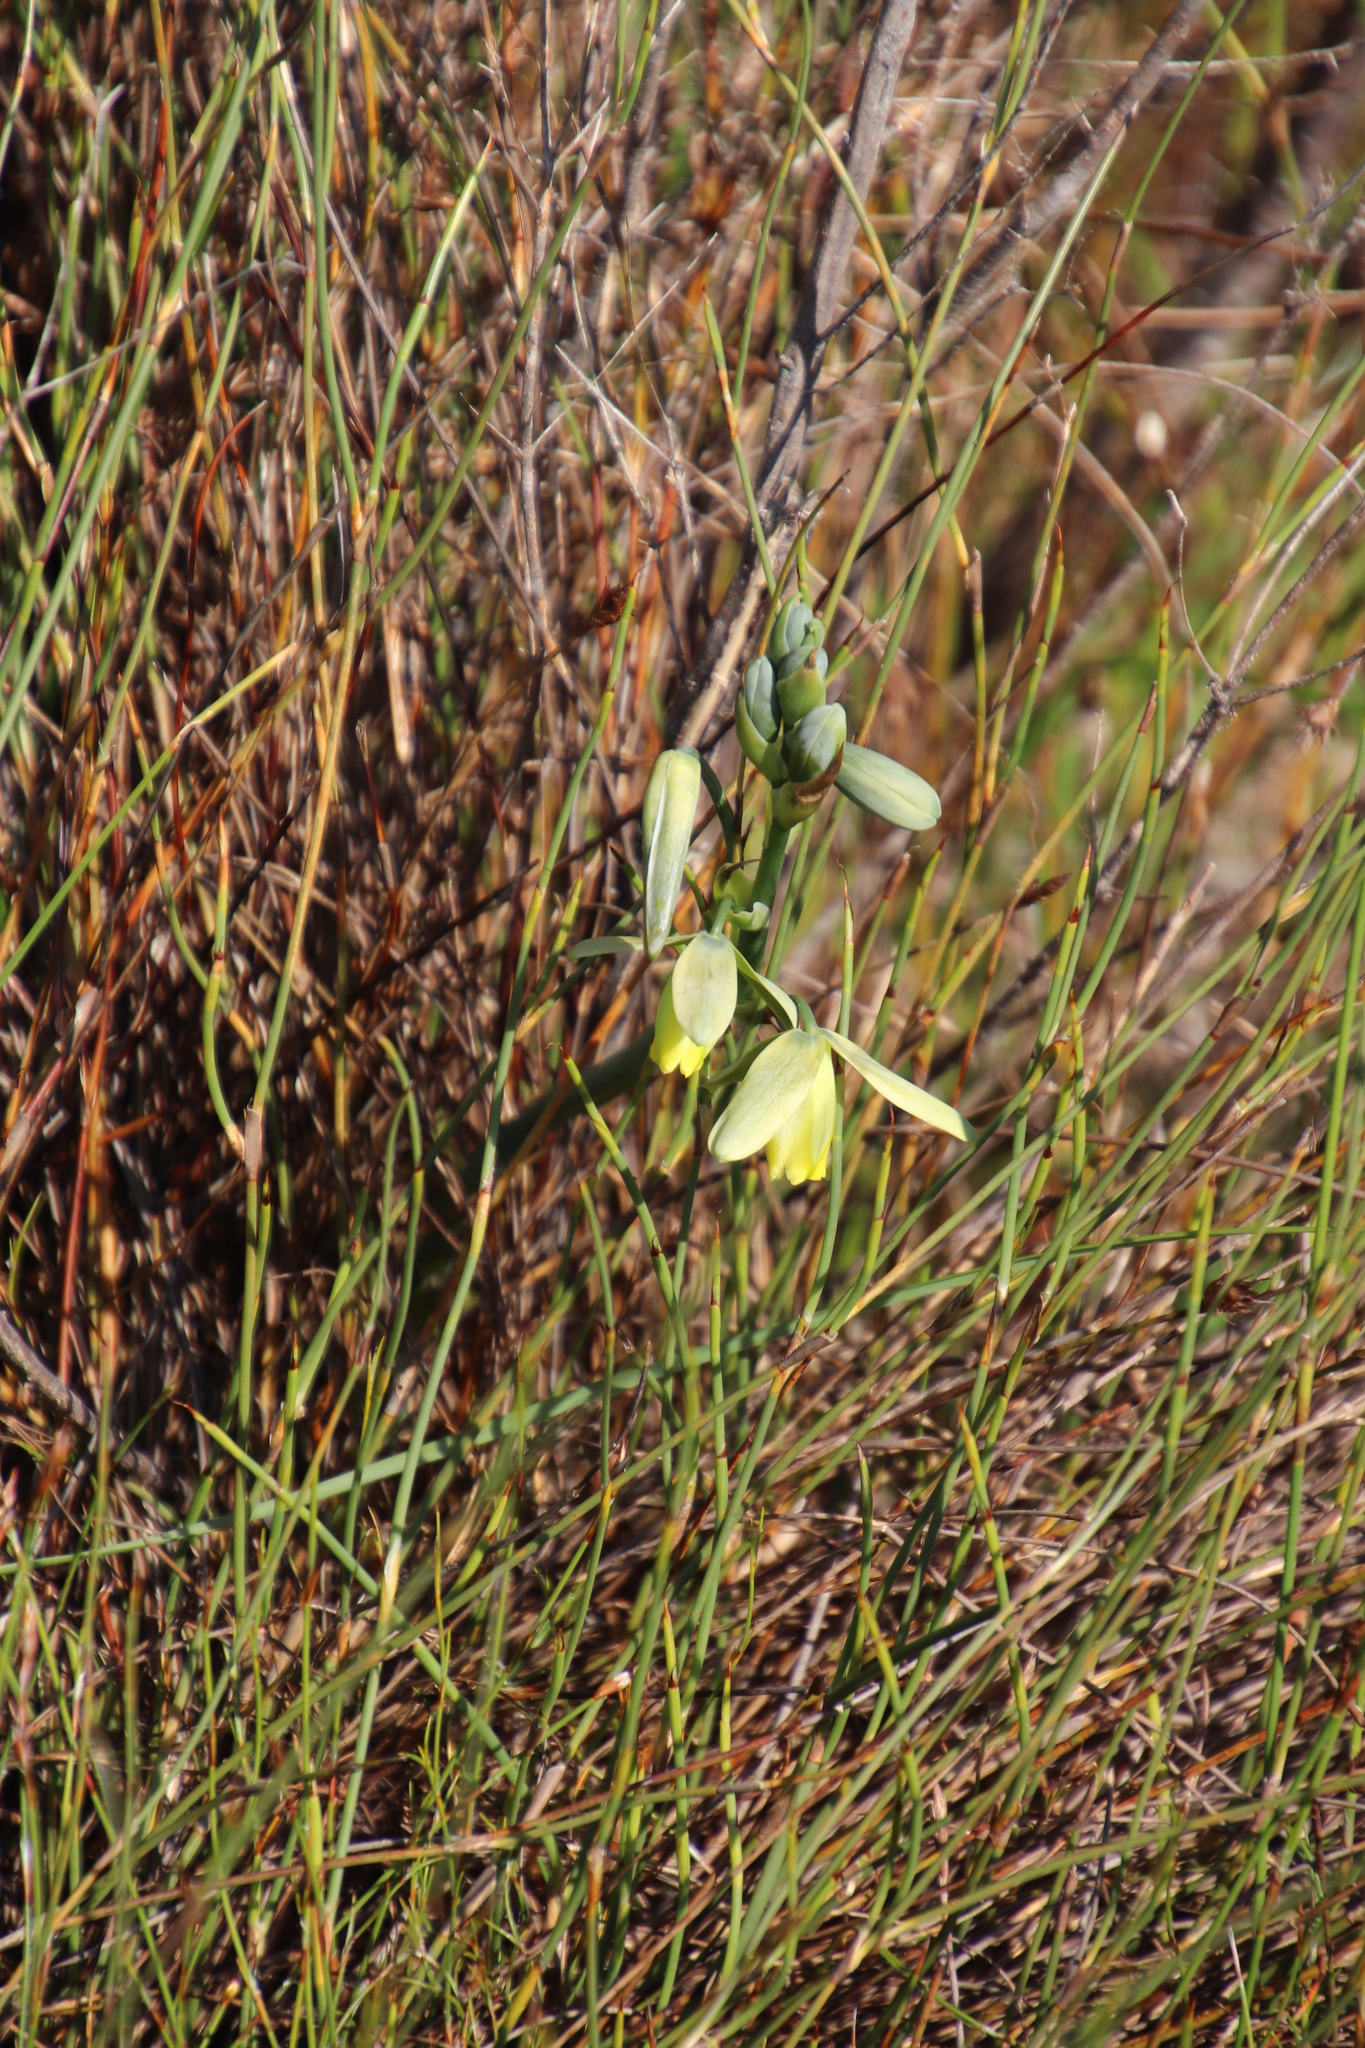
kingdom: Plantae
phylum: Tracheophyta
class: Liliopsida
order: Asparagales
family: Asparagaceae
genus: Albuca
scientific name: Albuca cooperi
